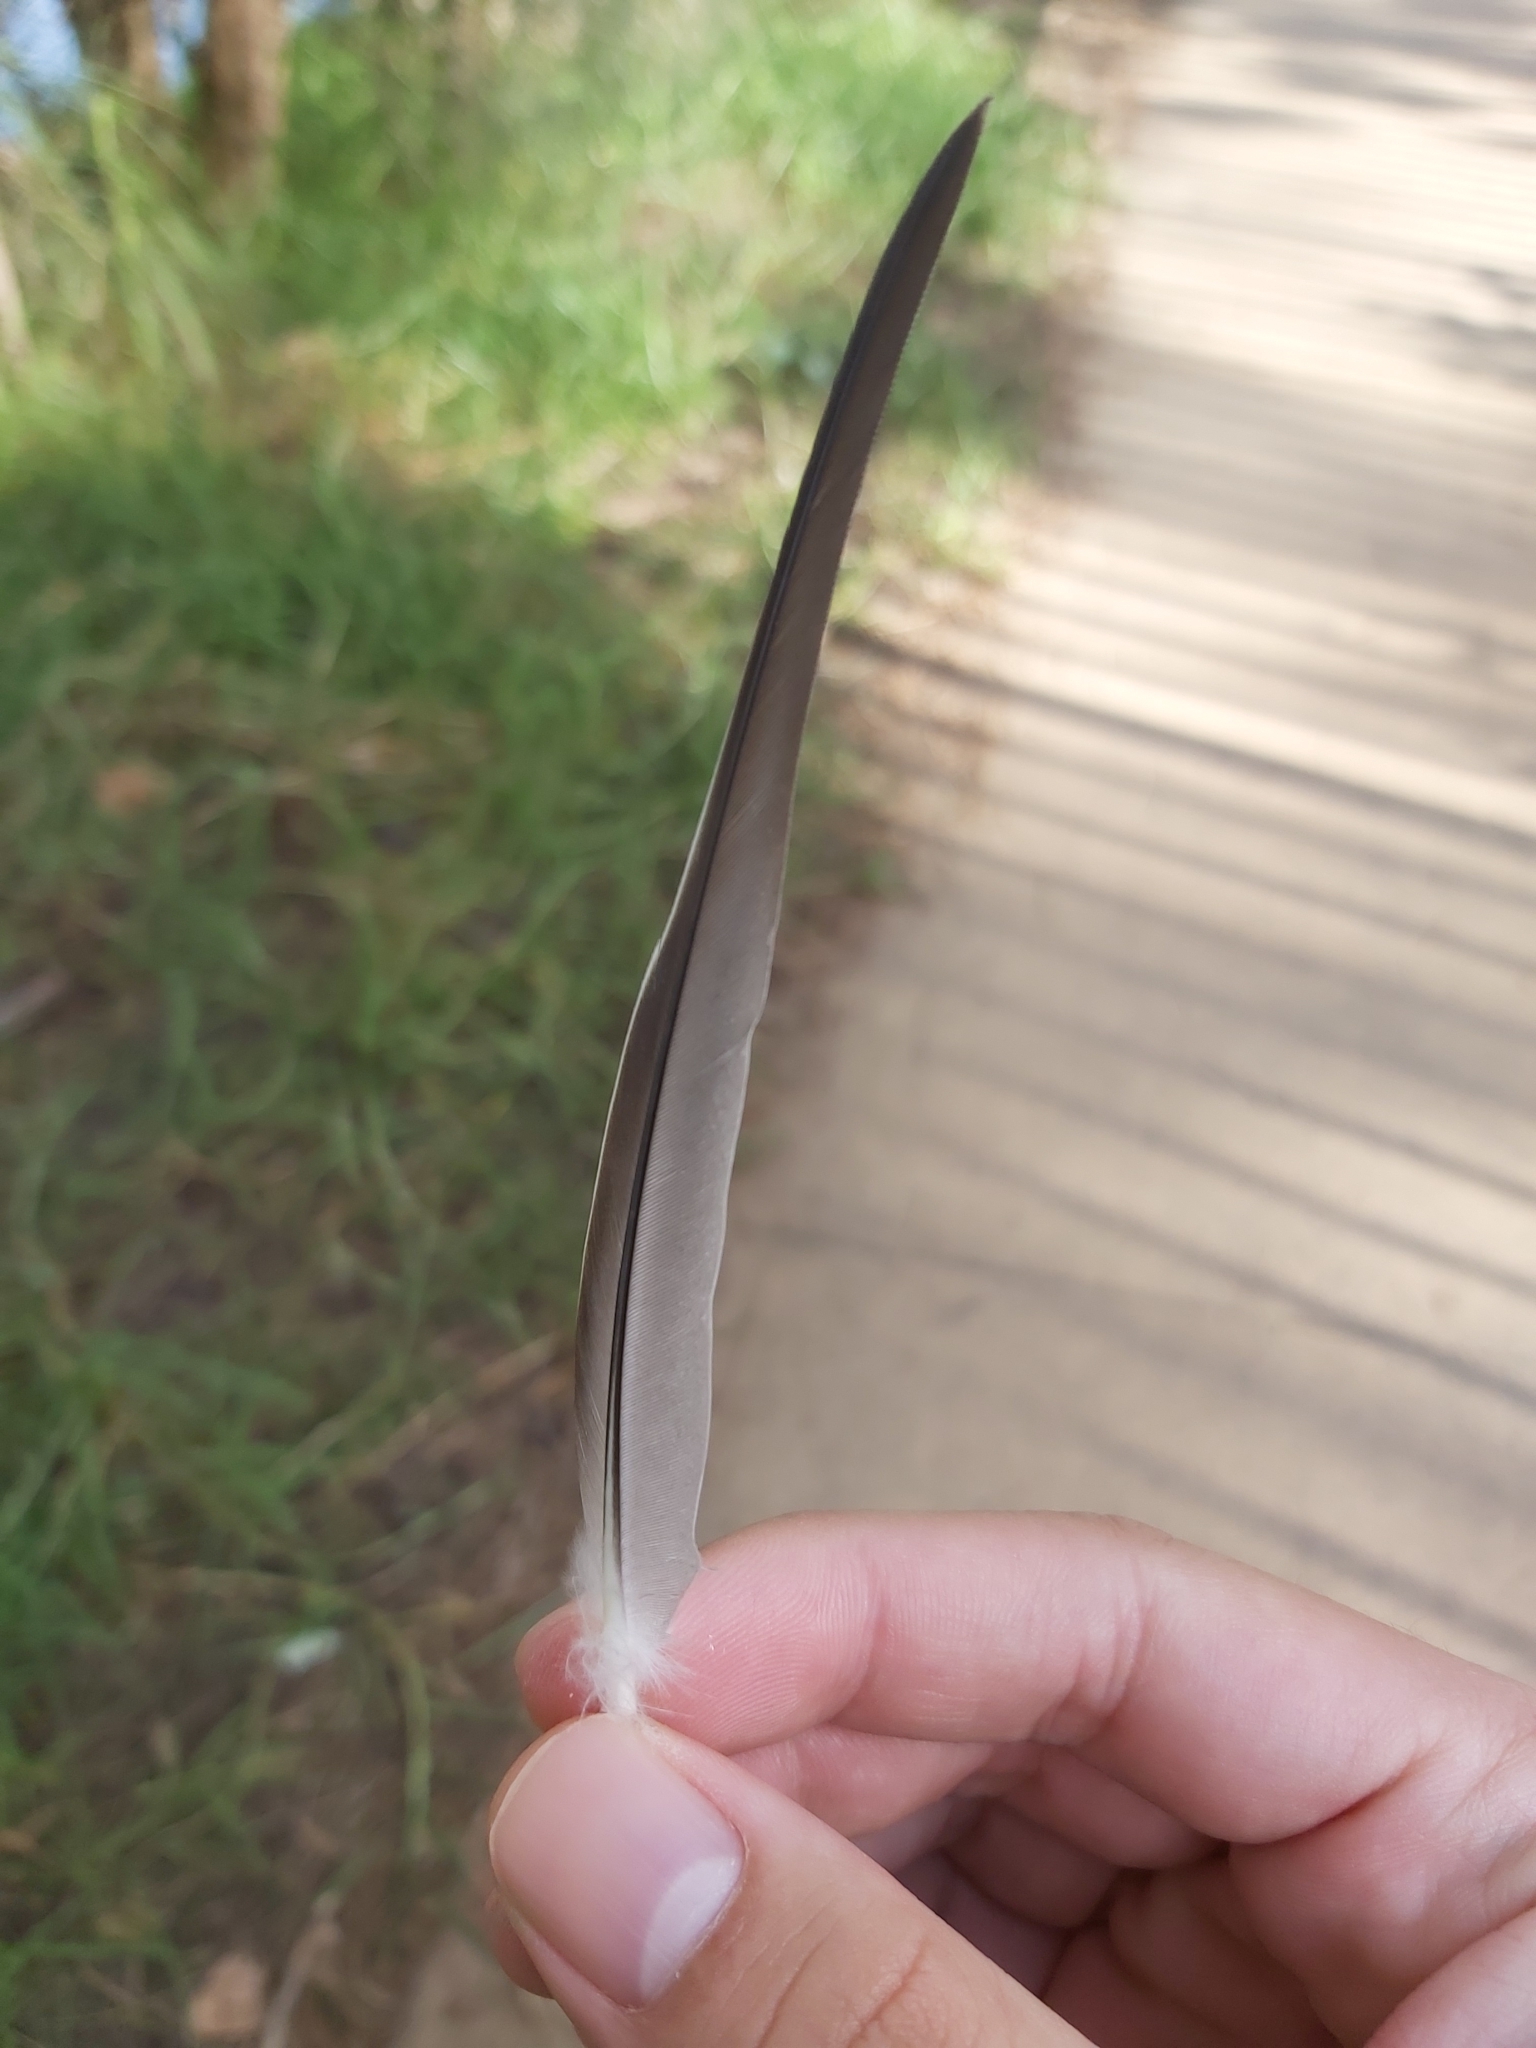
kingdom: Animalia
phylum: Chordata
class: Aves
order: Columbiformes
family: Columbidae
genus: Ocyphaps
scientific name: Ocyphaps lophotes
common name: Crested pigeon
